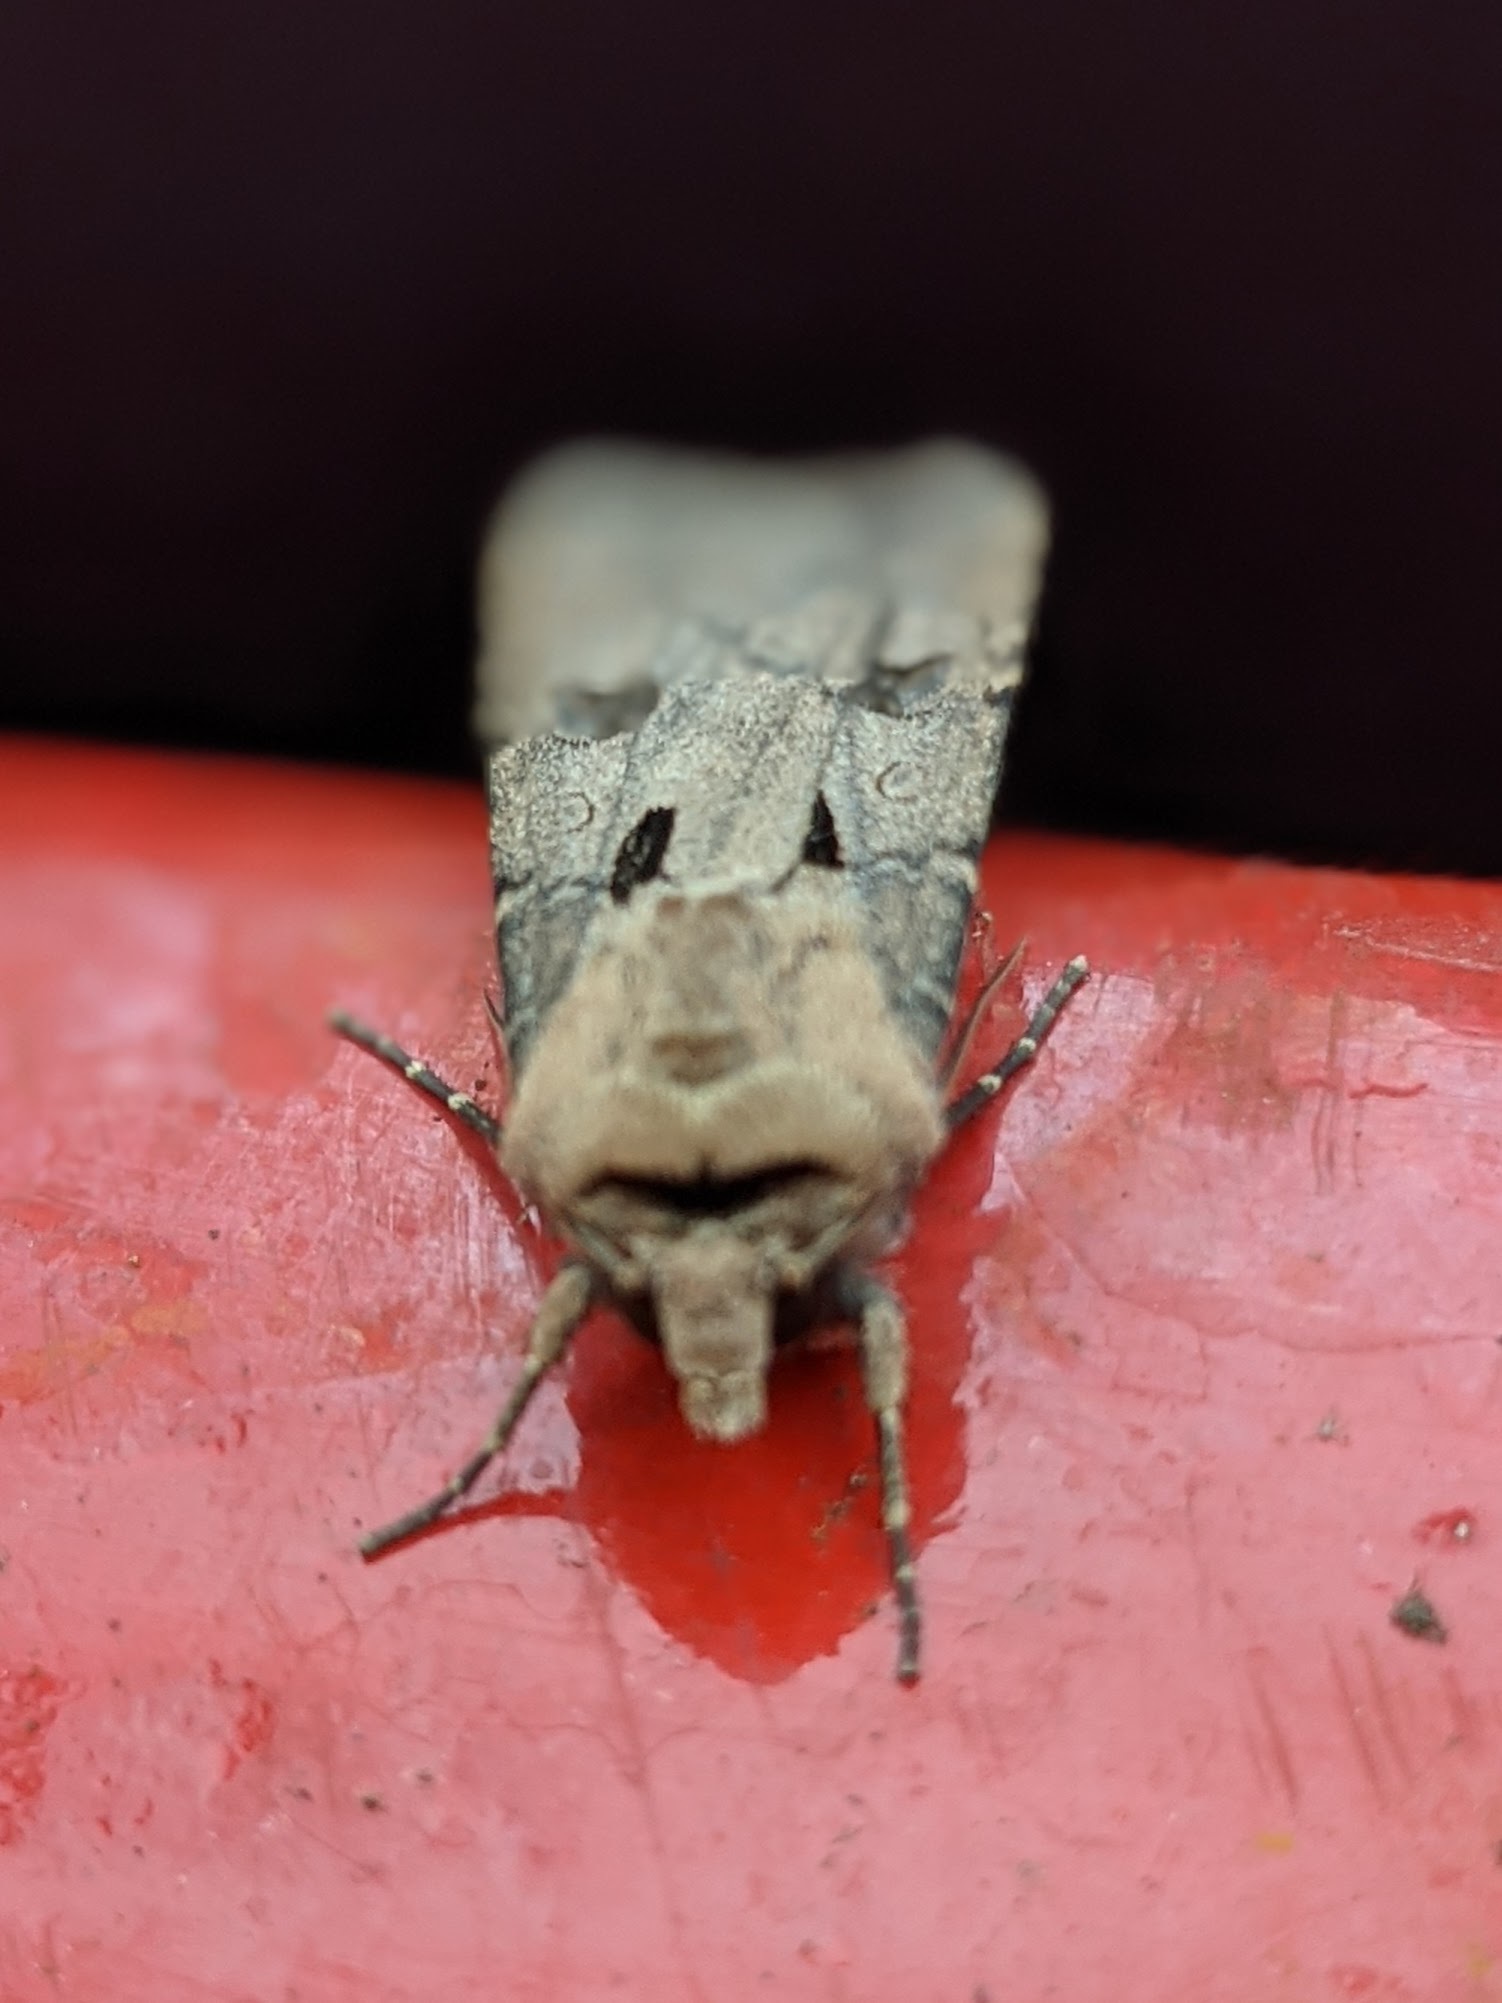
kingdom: Animalia
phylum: Arthropoda
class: Insecta
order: Lepidoptera
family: Noctuidae
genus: Agrotis
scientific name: Agrotis exclamationis
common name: Heart and dart
